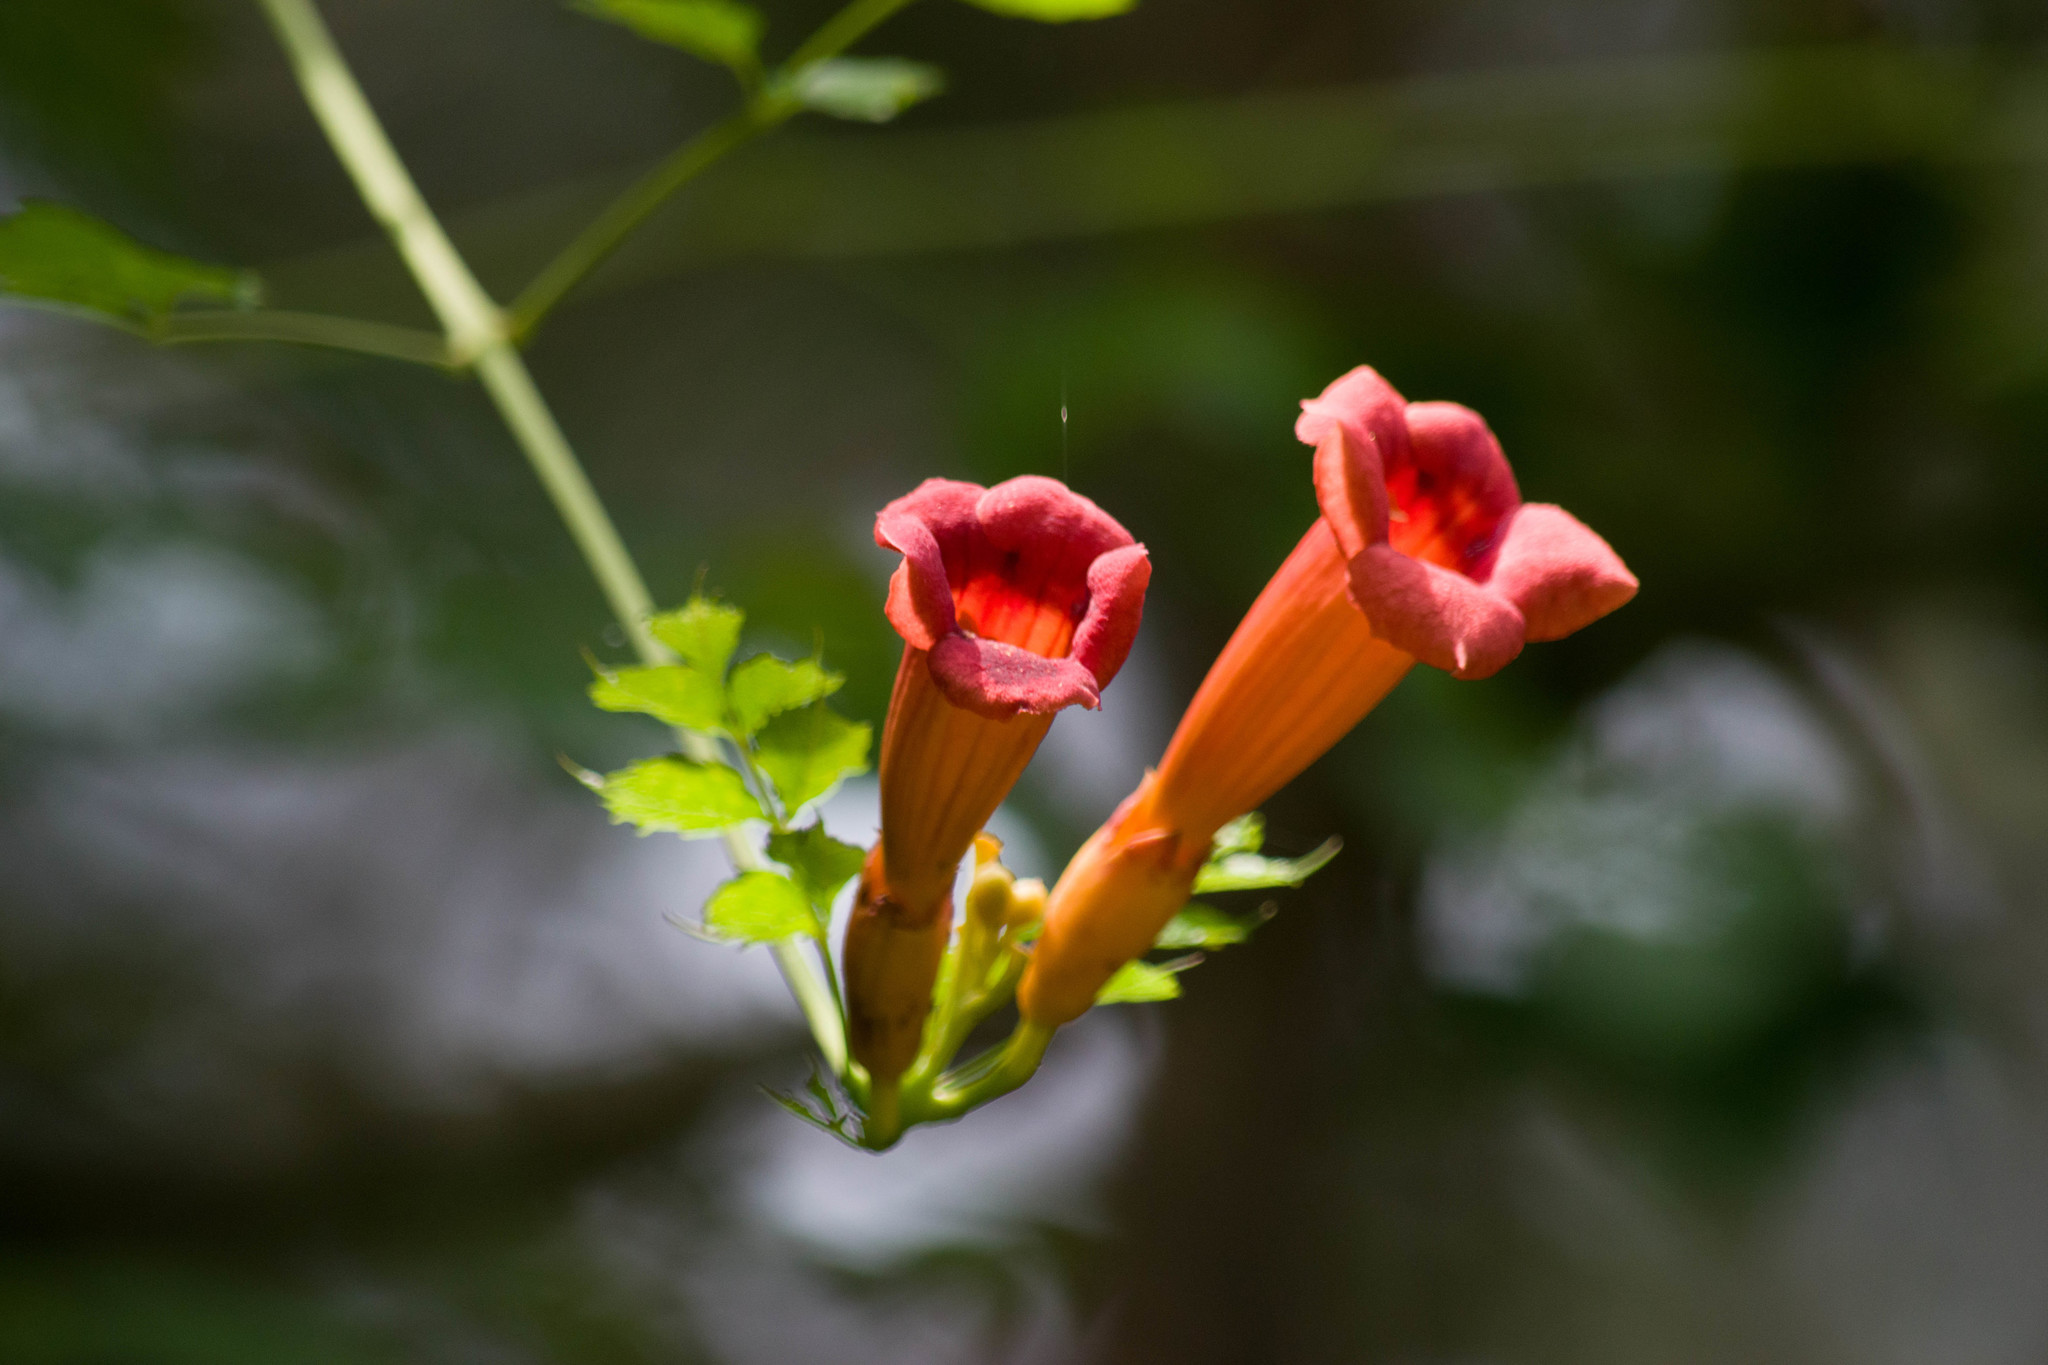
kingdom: Plantae
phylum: Tracheophyta
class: Magnoliopsida
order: Lamiales
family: Bignoniaceae
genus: Campsis
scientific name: Campsis radicans
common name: Trumpet-creeper
